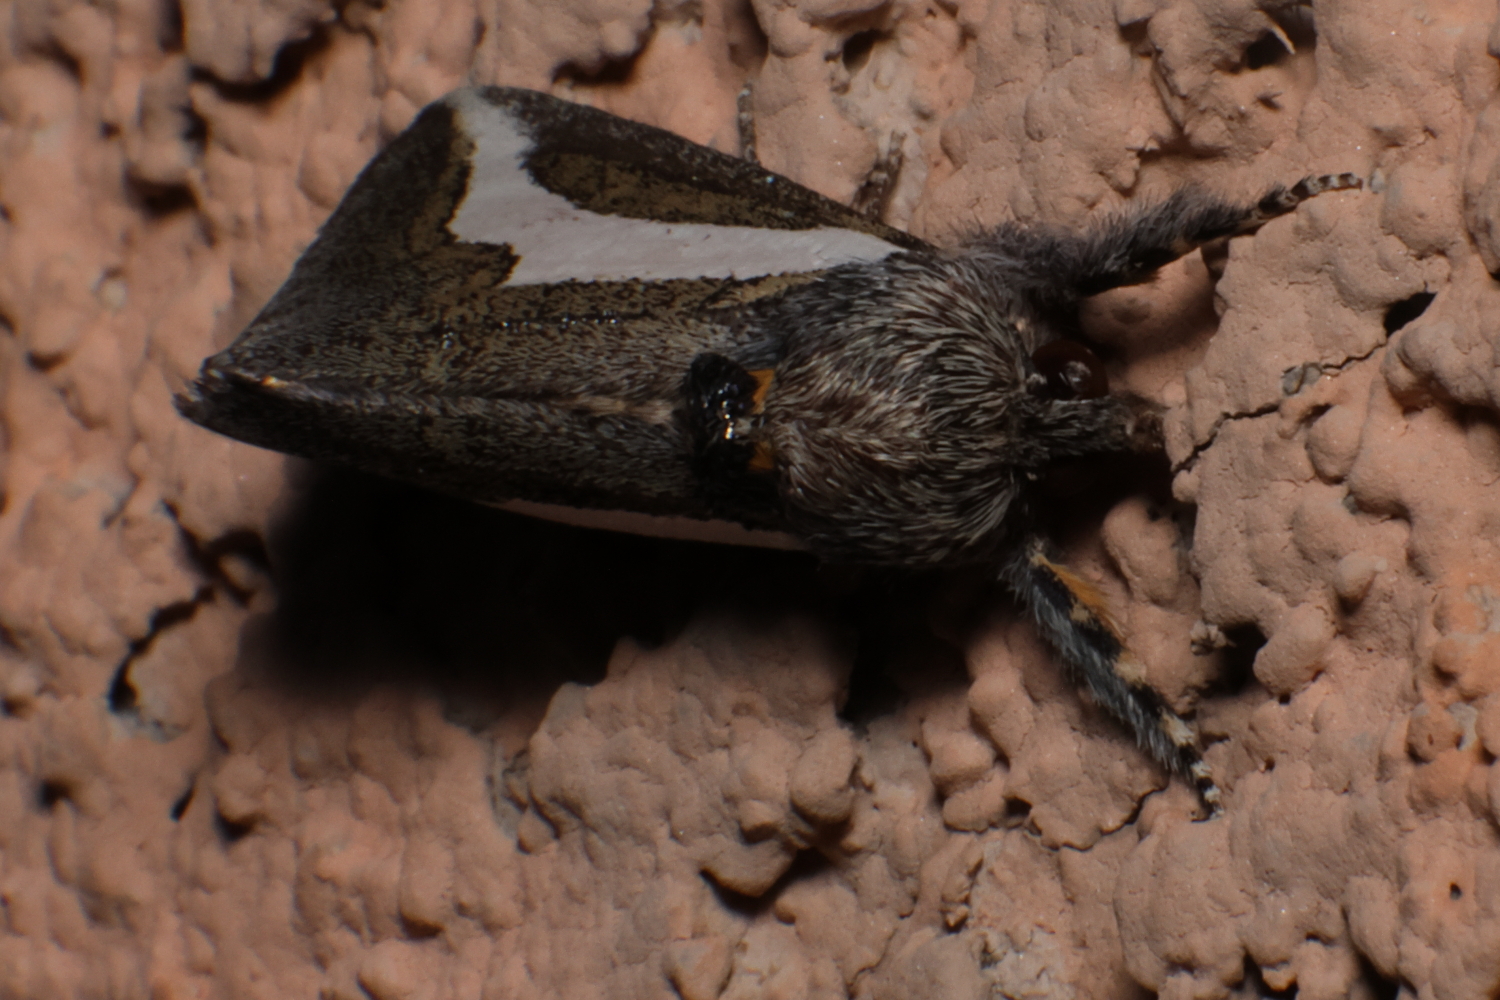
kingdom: Animalia
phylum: Arthropoda
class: Insecta
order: Lepidoptera
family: Noctuidae
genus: Euscirrhopterus
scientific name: Euscirrhopterus cosyra
